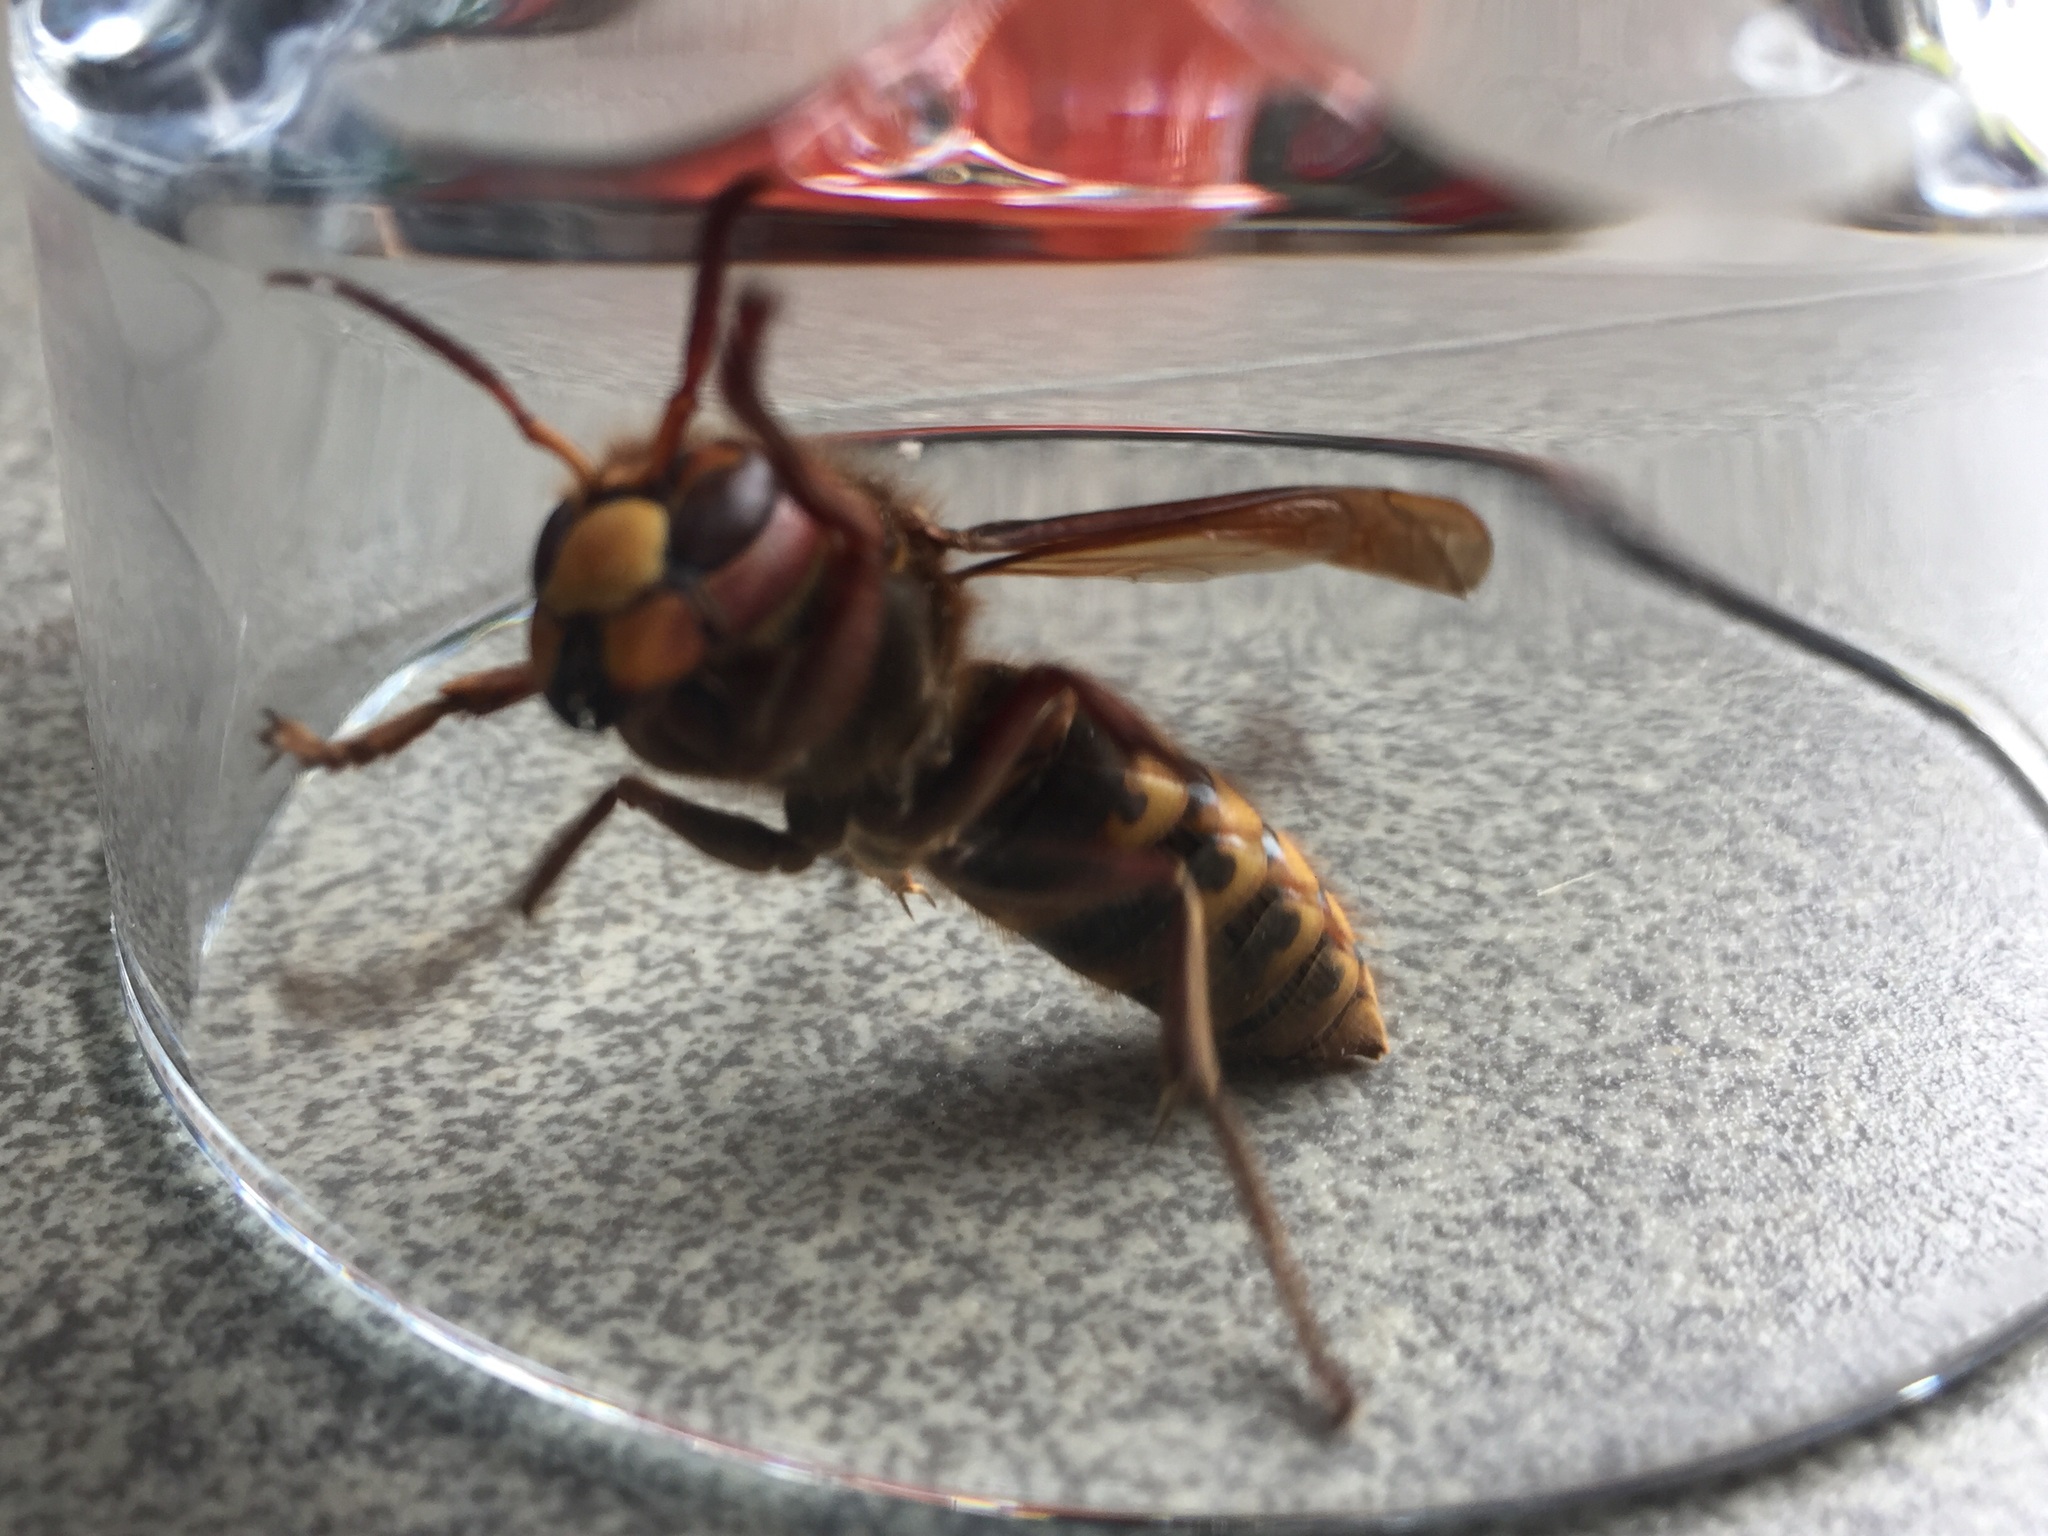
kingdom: Animalia
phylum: Arthropoda
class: Insecta
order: Hymenoptera
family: Vespidae
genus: Vespa
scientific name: Vespa crabro
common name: Hornet
